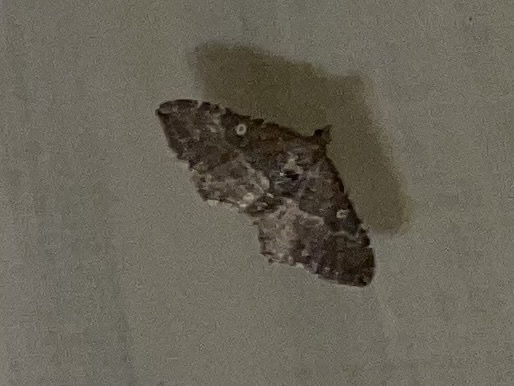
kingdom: Animalia
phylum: Arthropoda
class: Insecta
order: Lepidoptera
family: Geometridae
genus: Orthonama
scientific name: Orthonama obstipata
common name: The gem
